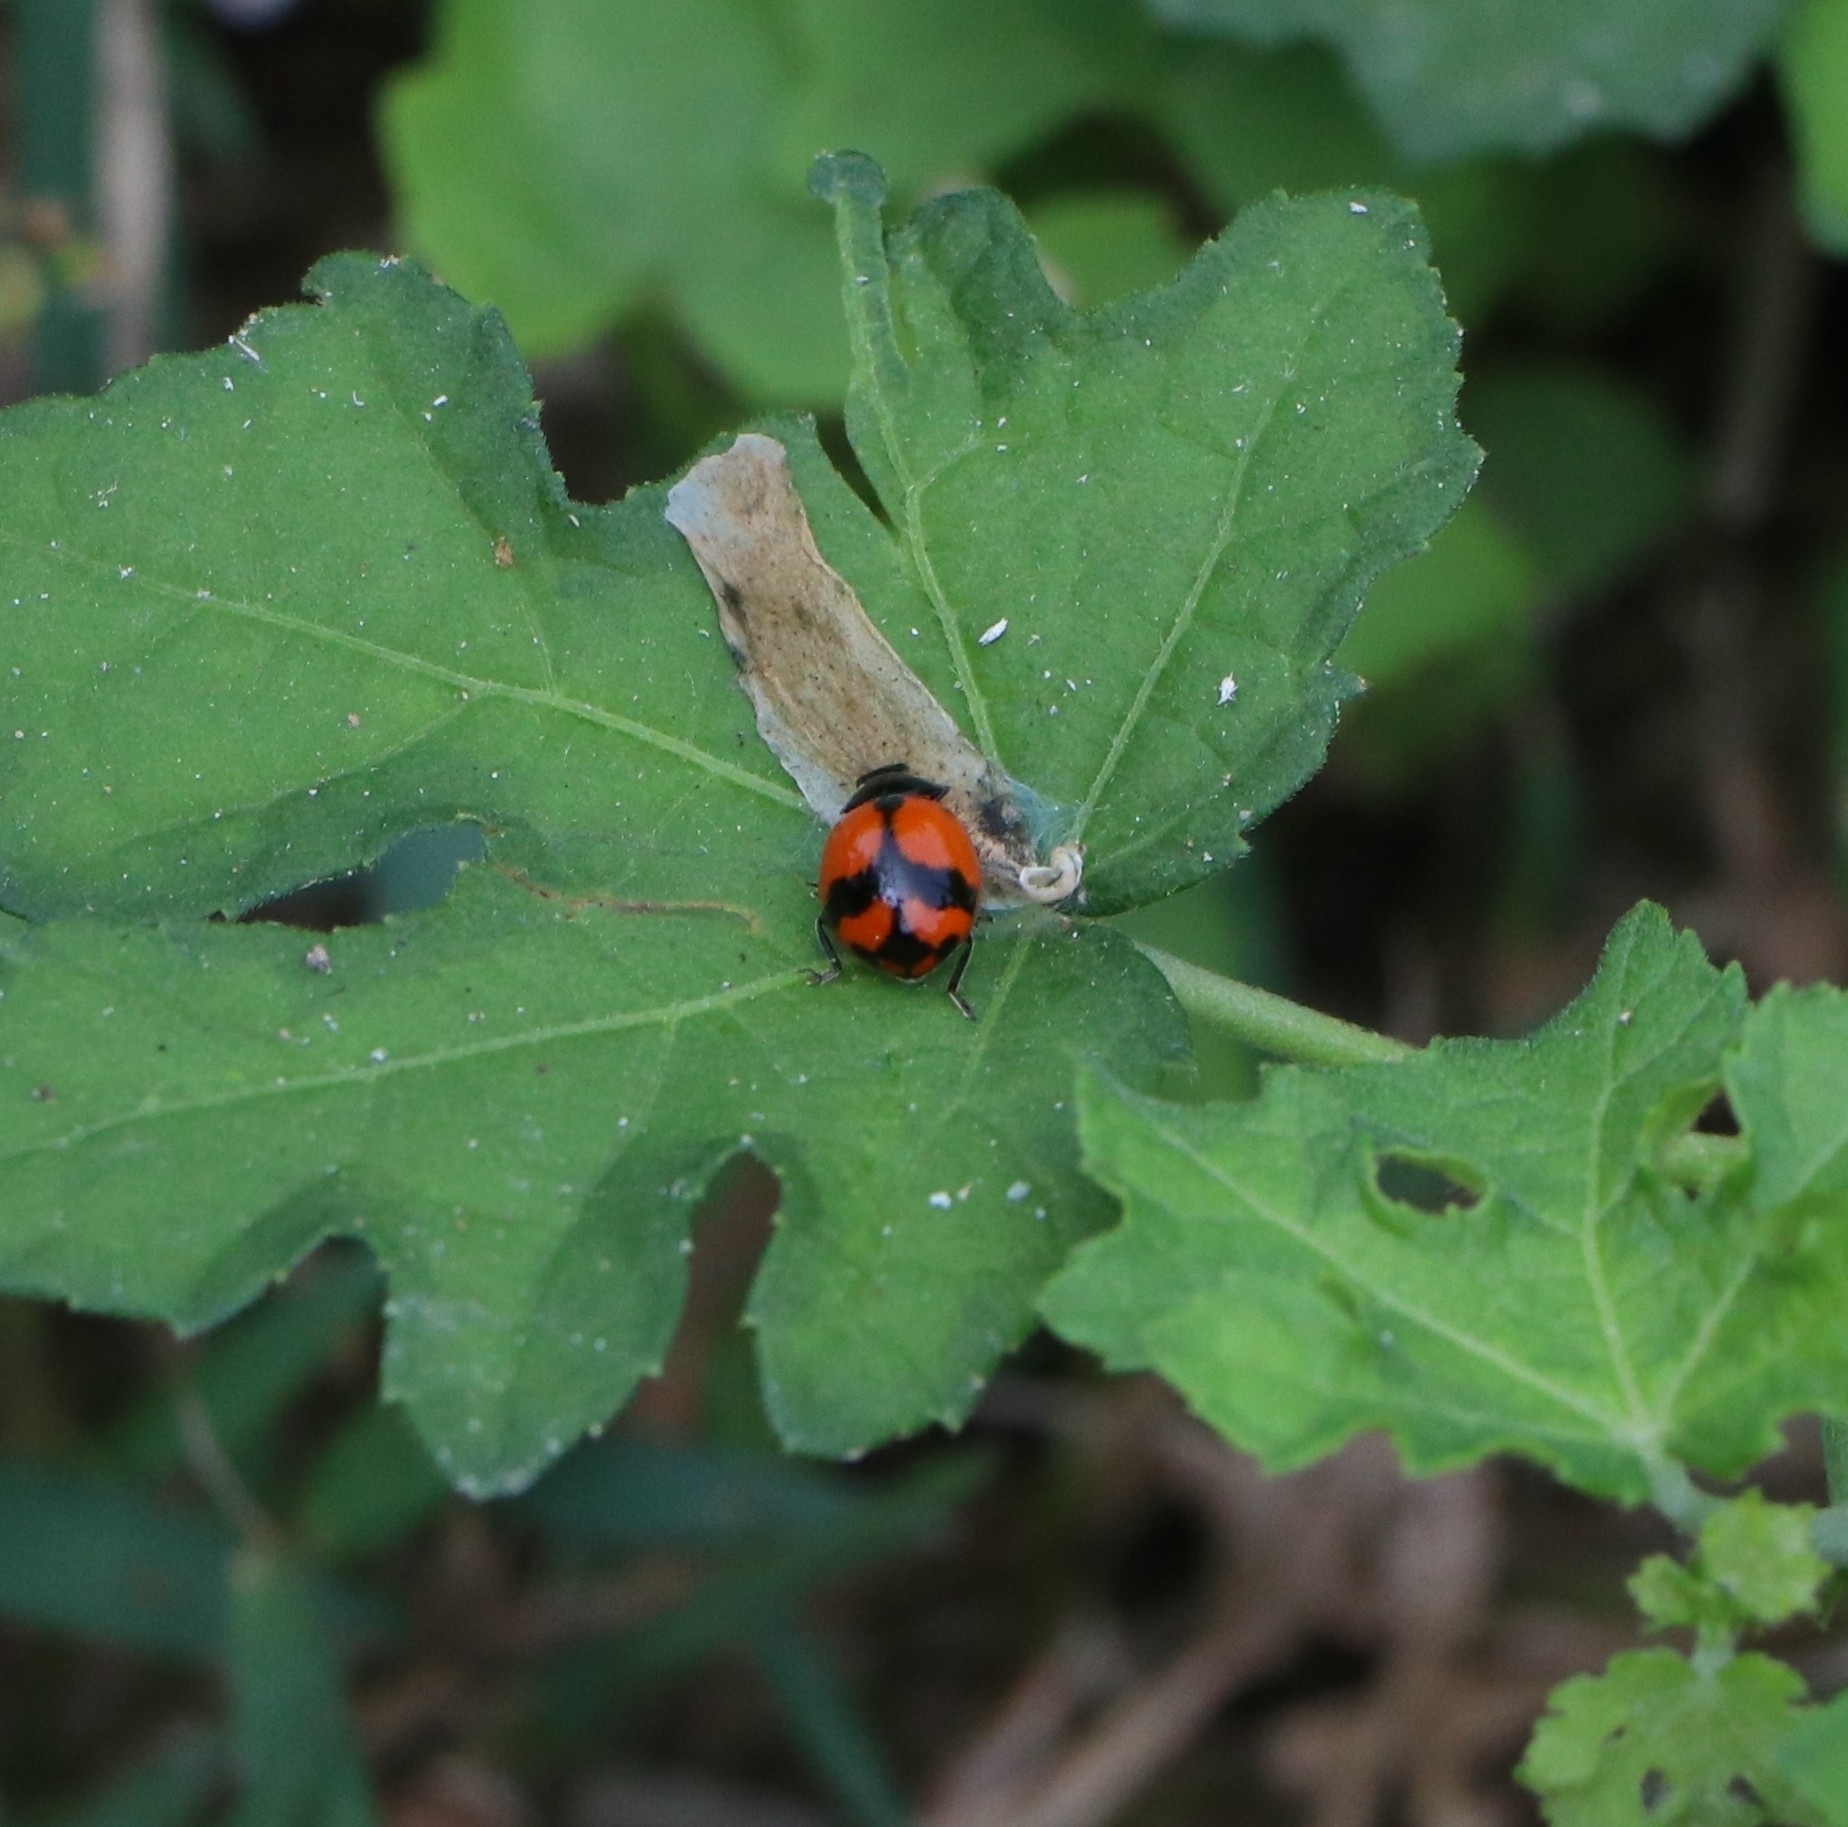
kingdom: Animalia
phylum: Arthropoda
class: Insecta
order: Coleoptera
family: Coccinellidae
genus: Coccinella
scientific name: Coccinella transversalis
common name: Transverse lady beetle
